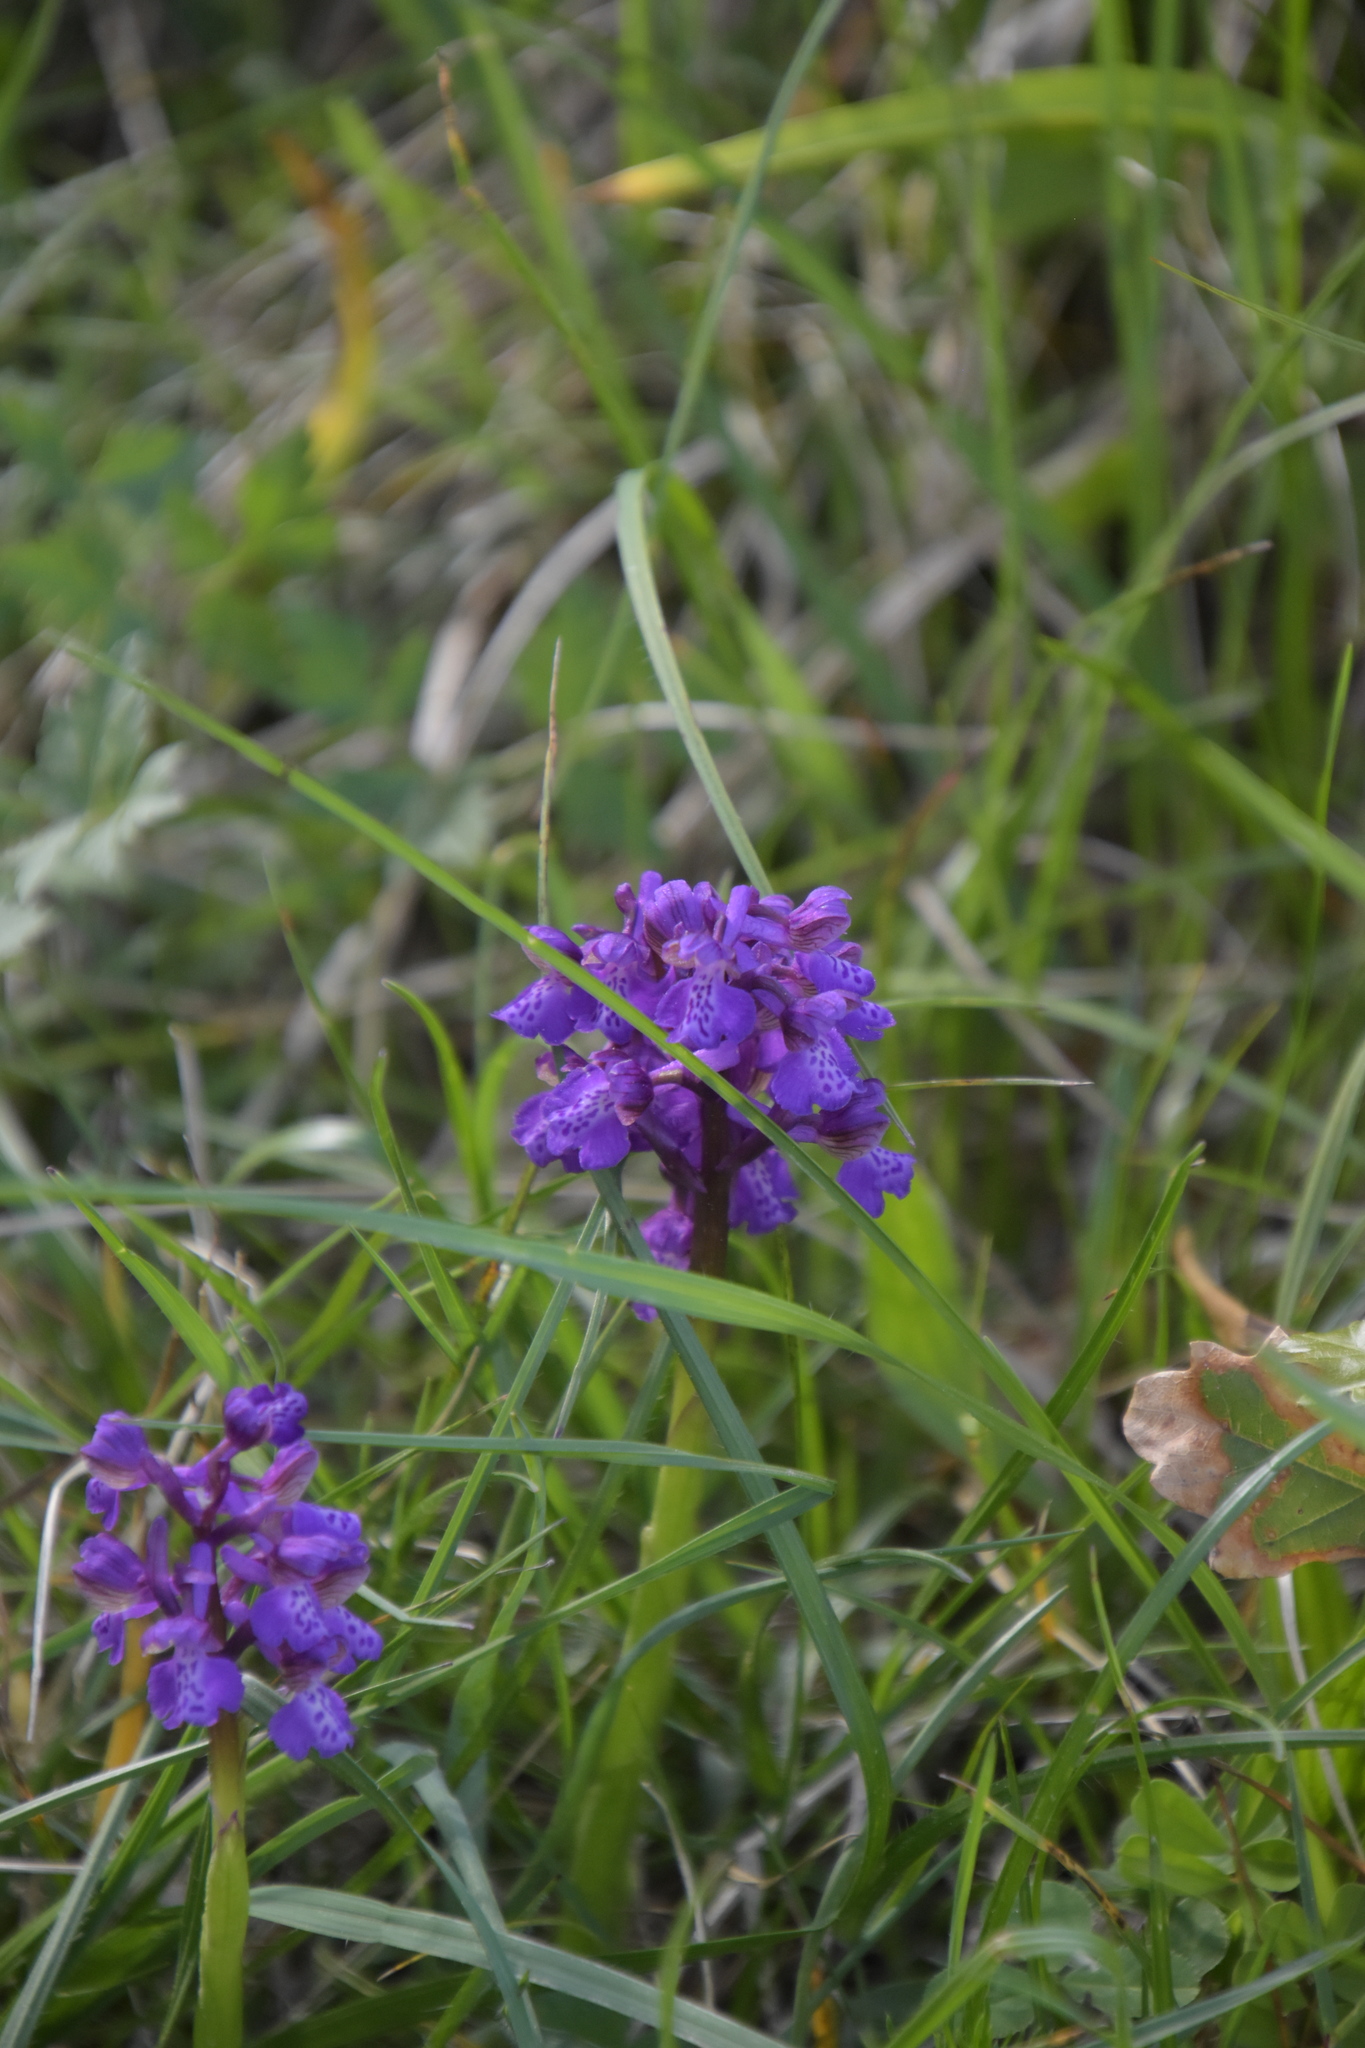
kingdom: Plantae
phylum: Tracheophyta
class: Liliopsida
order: Asparagales
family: Orchidaceae
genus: Anacamptis
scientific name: Anacamptis morio
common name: Green-winged orchid
